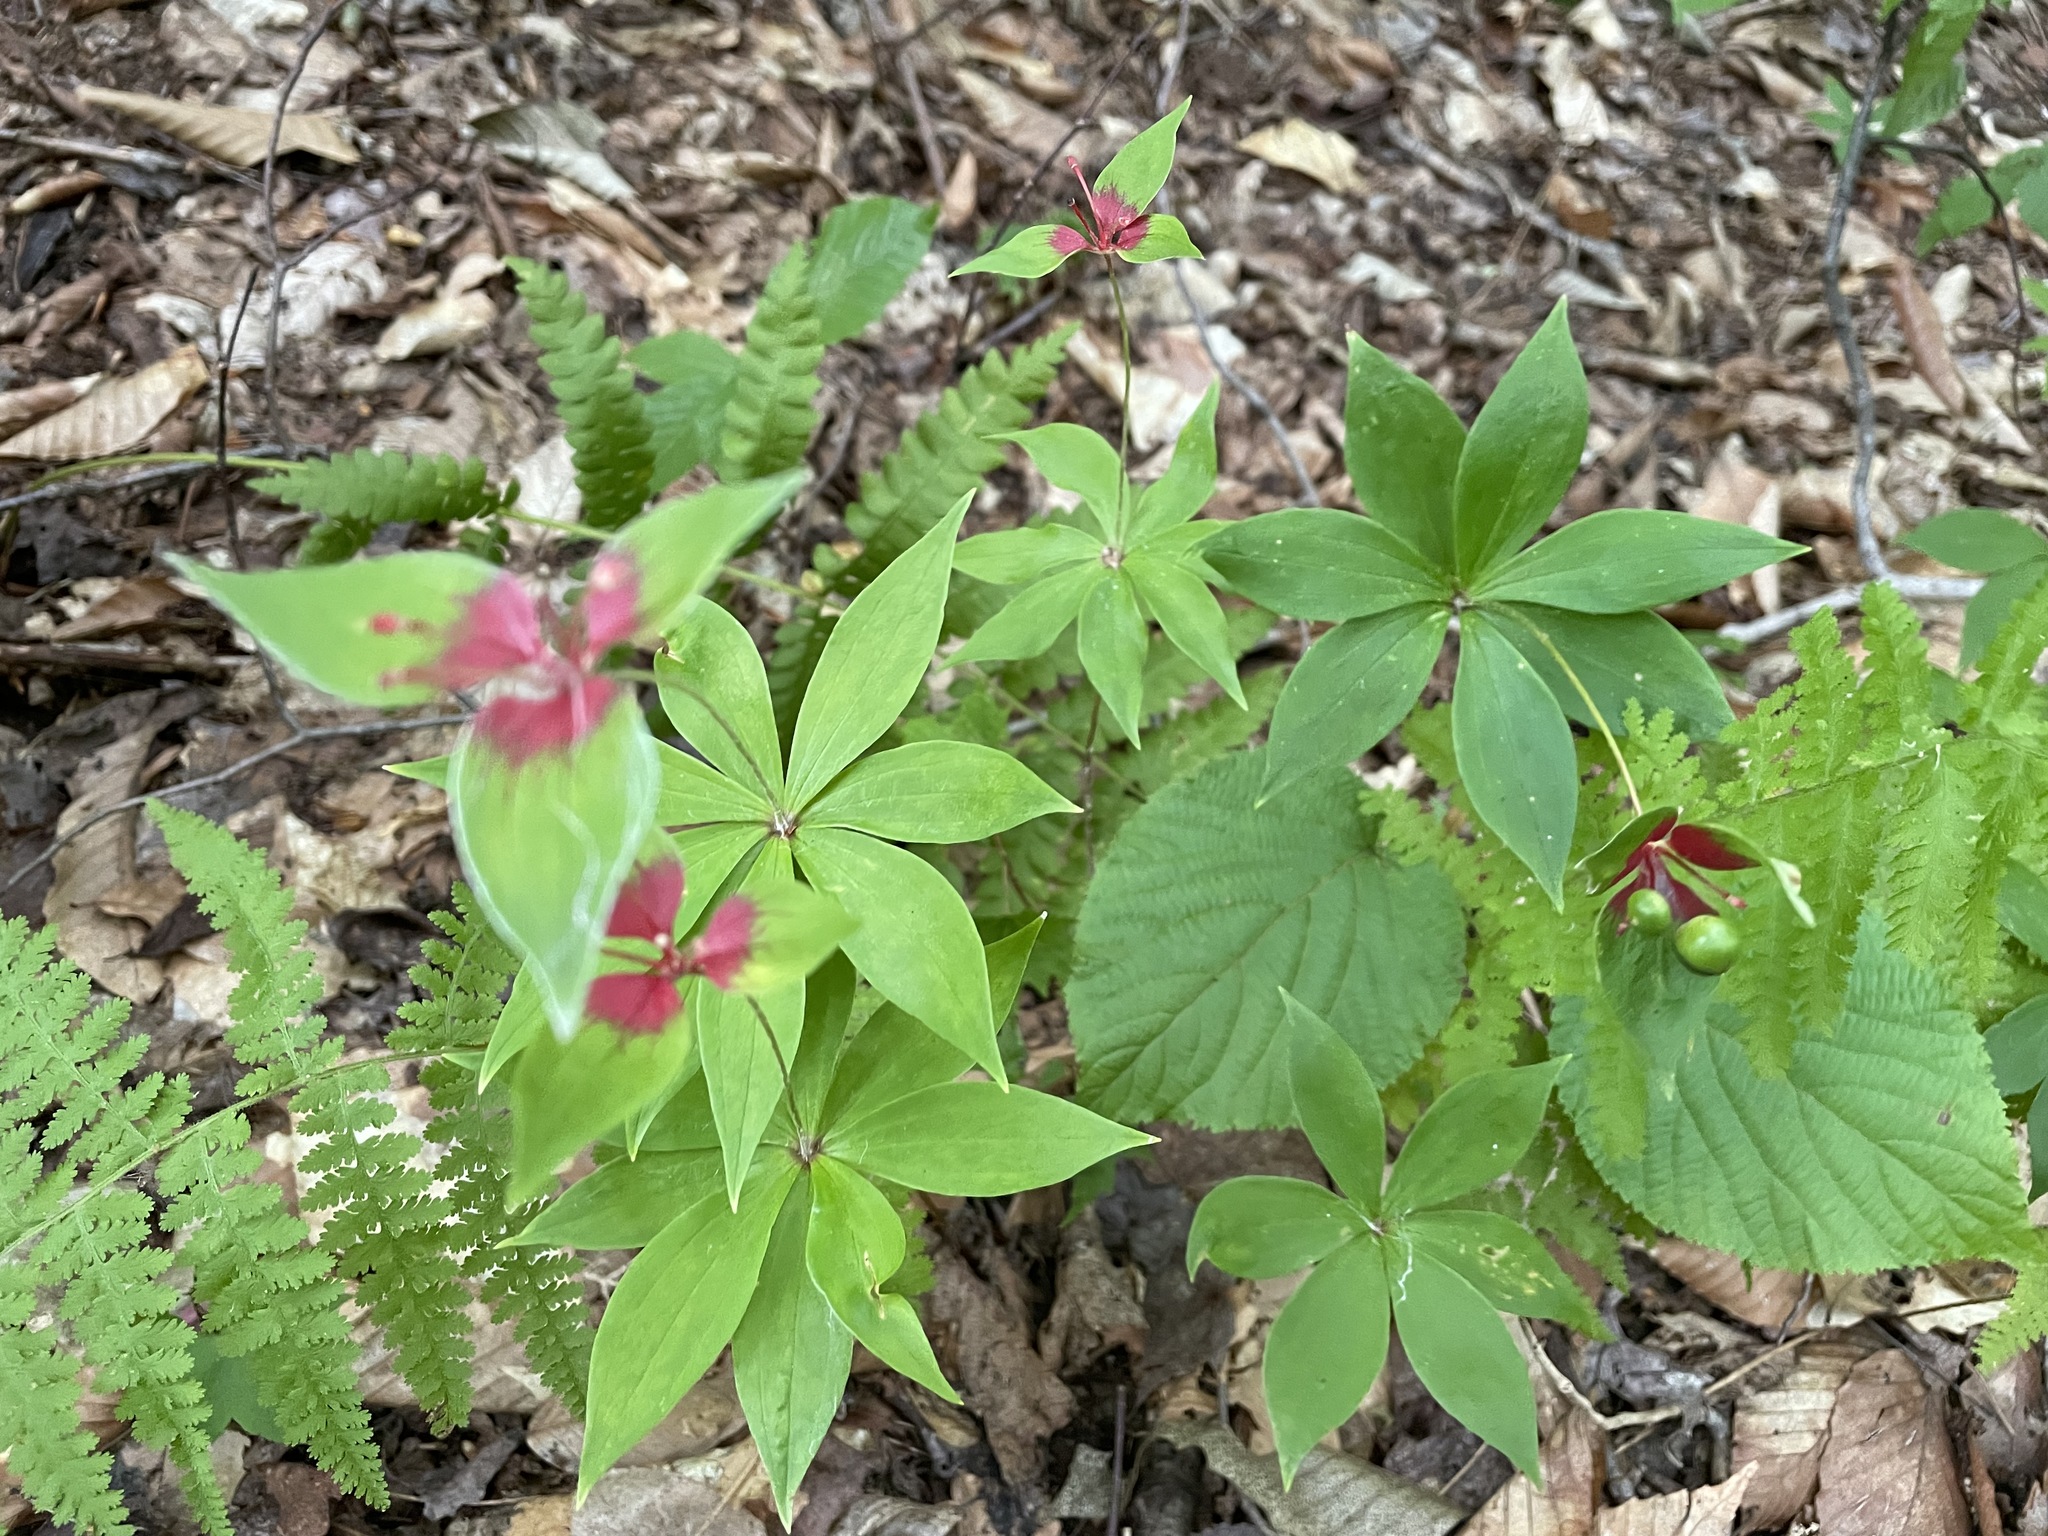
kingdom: Plantae
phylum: Tracheophyta
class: Liliopsida
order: Liliales
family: Liliaceae
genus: Medeola
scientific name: Medeola virginiana
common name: Indian cucumber-root
